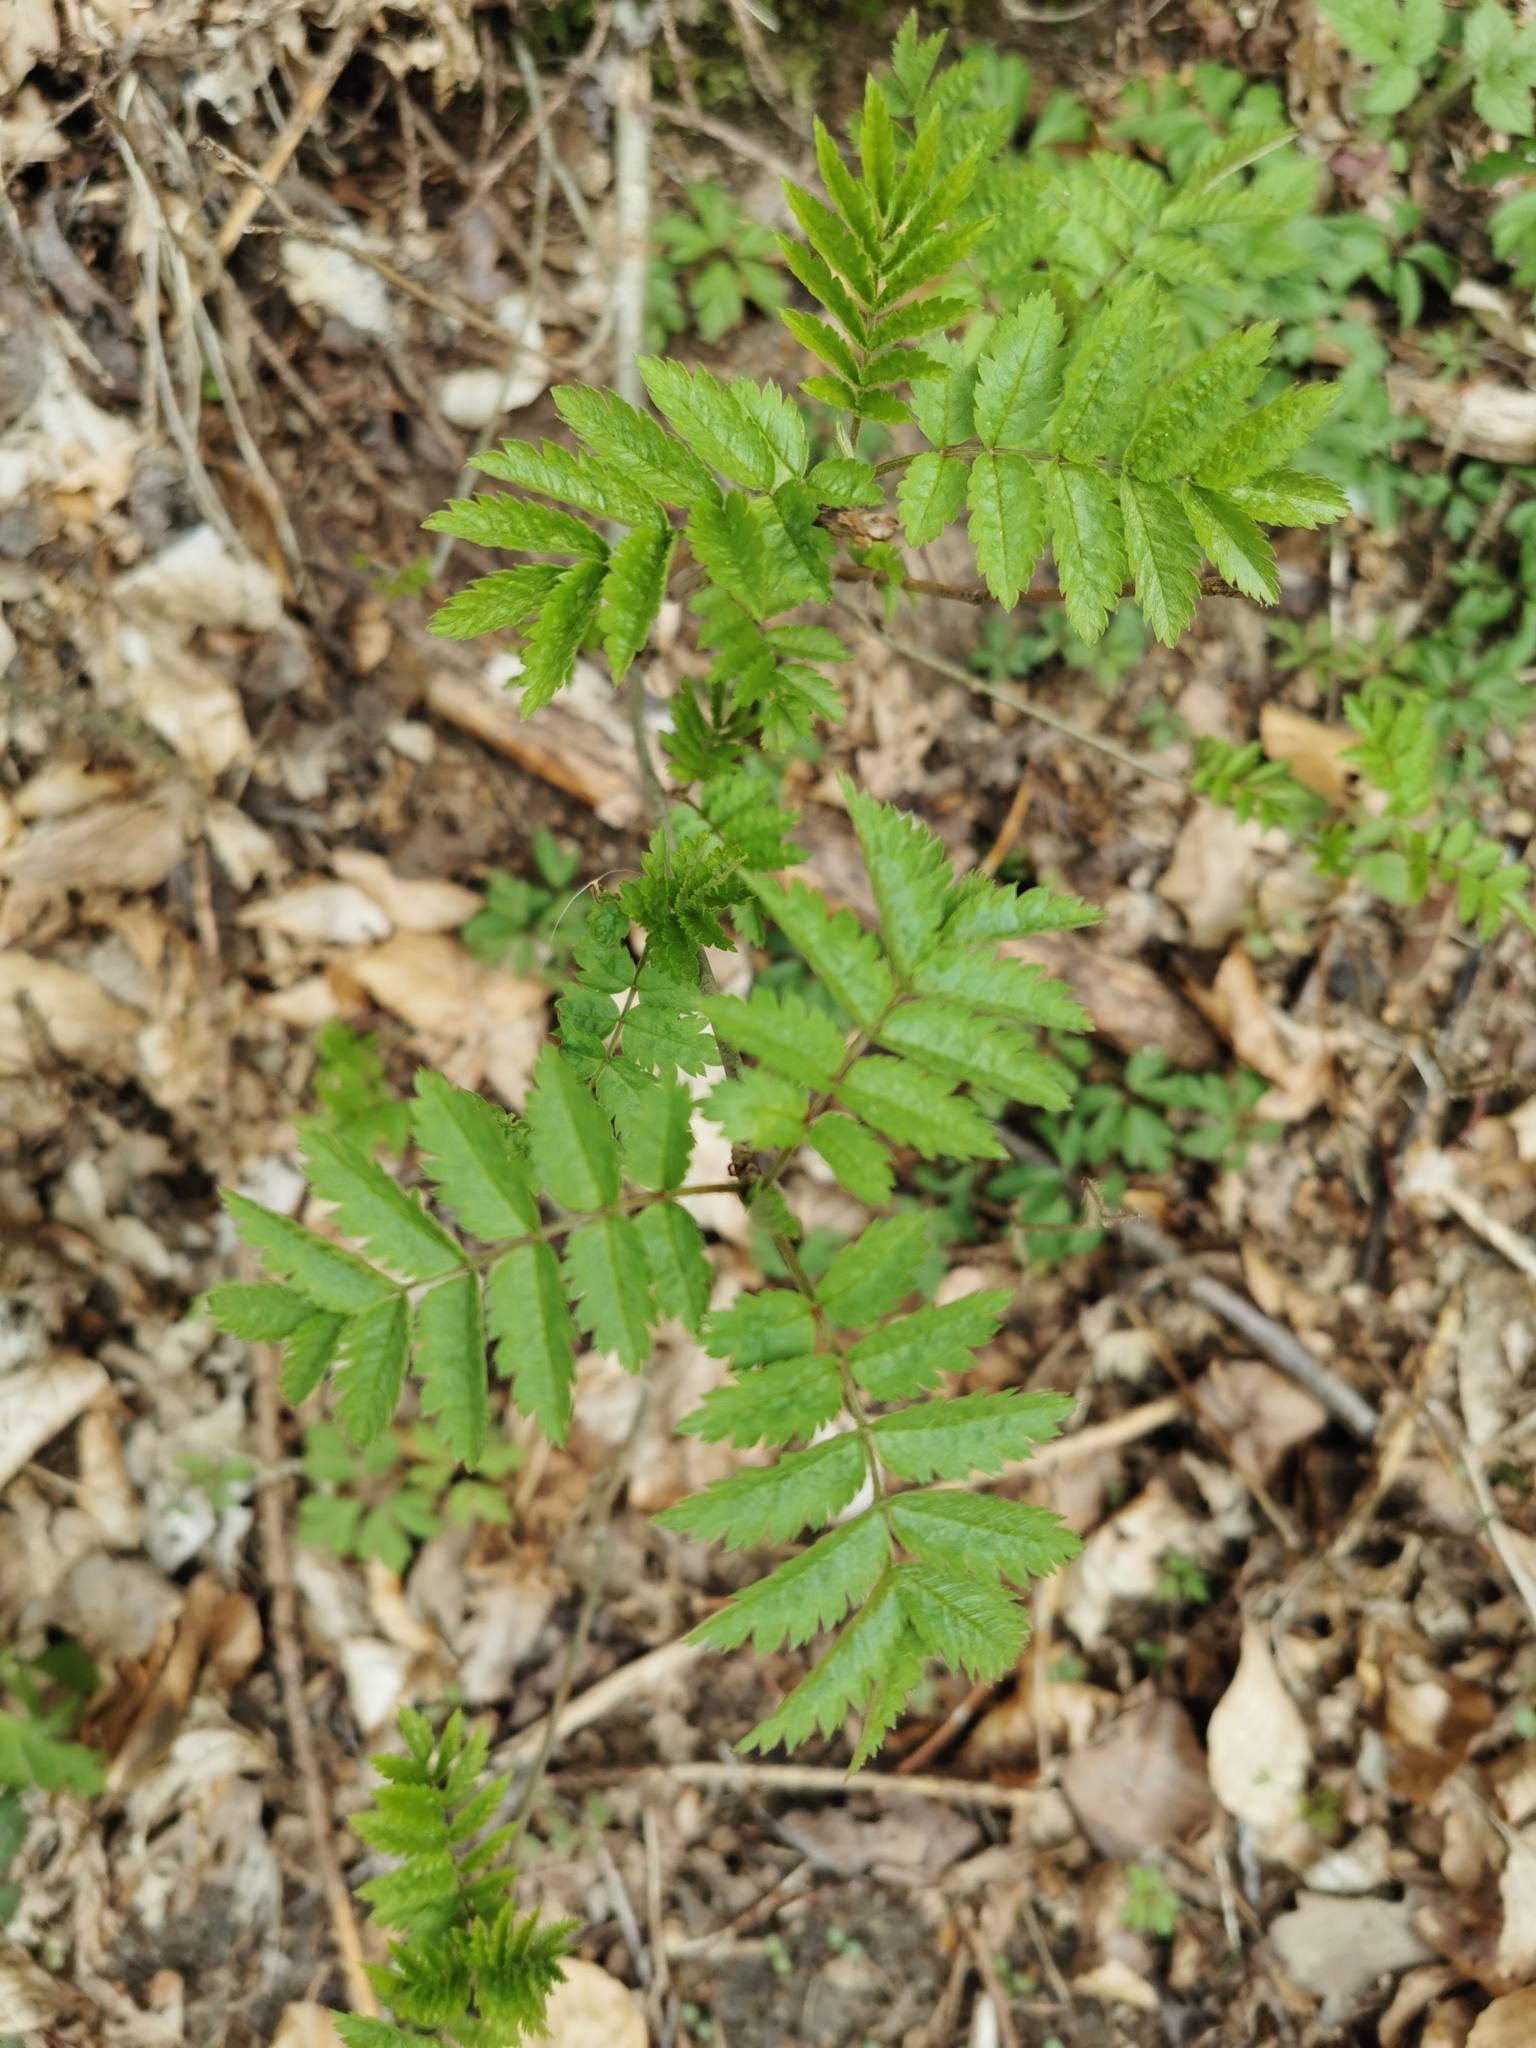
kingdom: Plantae
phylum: Tracheophyta
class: Magnoliopsida
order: Rosales
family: Rosaceae
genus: Sorbus
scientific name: Sorbus aucuparia
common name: Rowan
